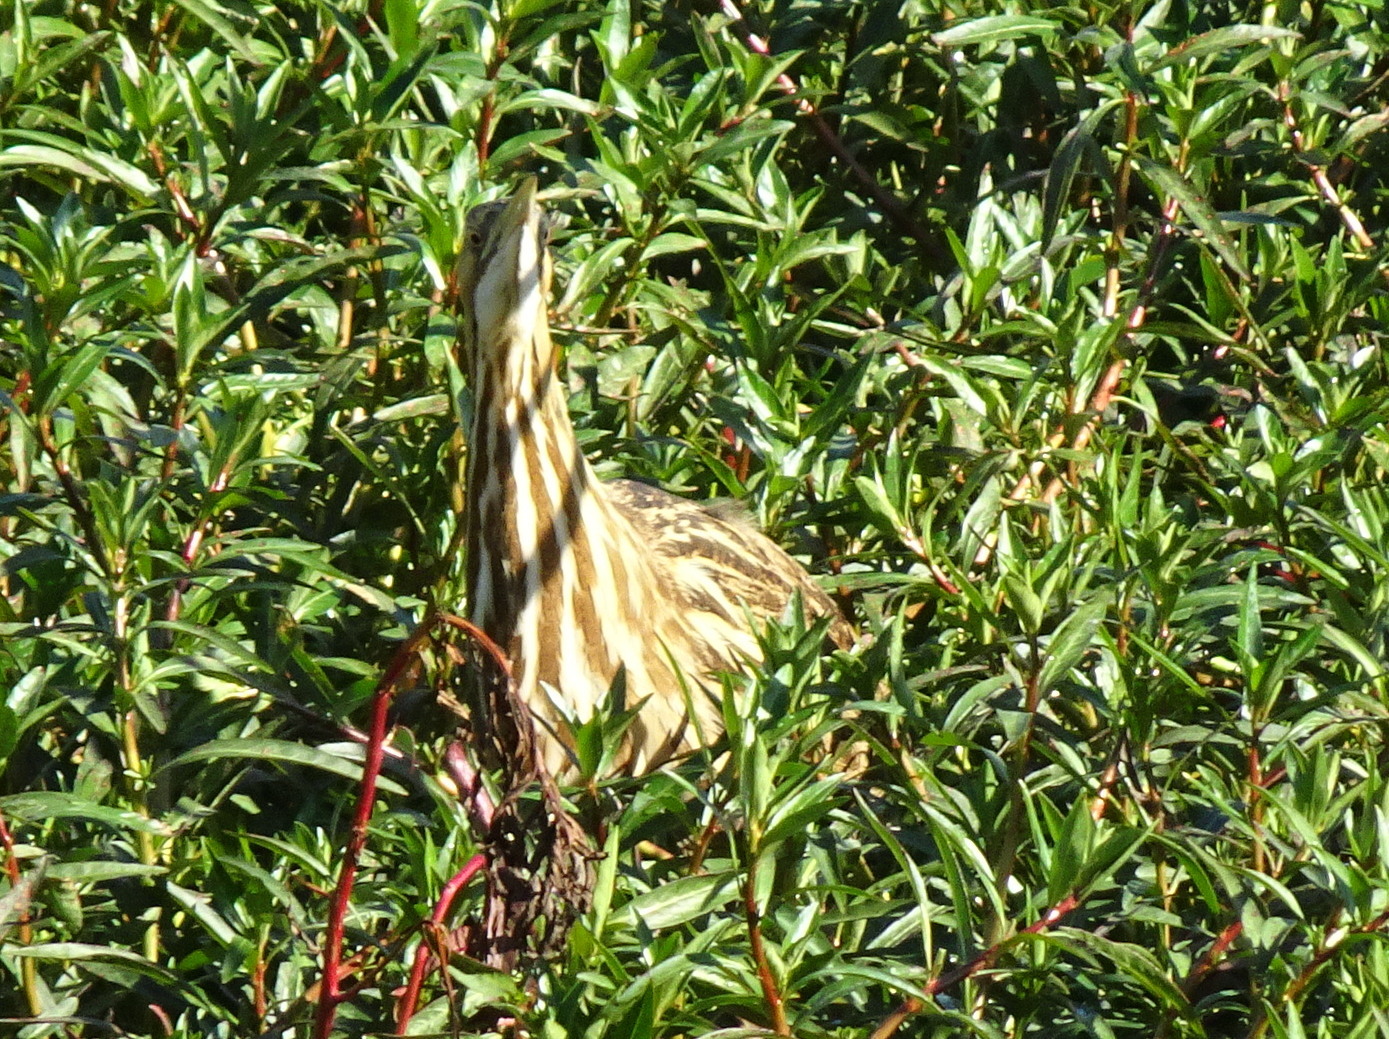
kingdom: Animalia
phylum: Chordata
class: Aves
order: Pelecaniformes
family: Ardeidae
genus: Botaurus
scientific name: Botaurus lentiginosus
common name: American bittern
